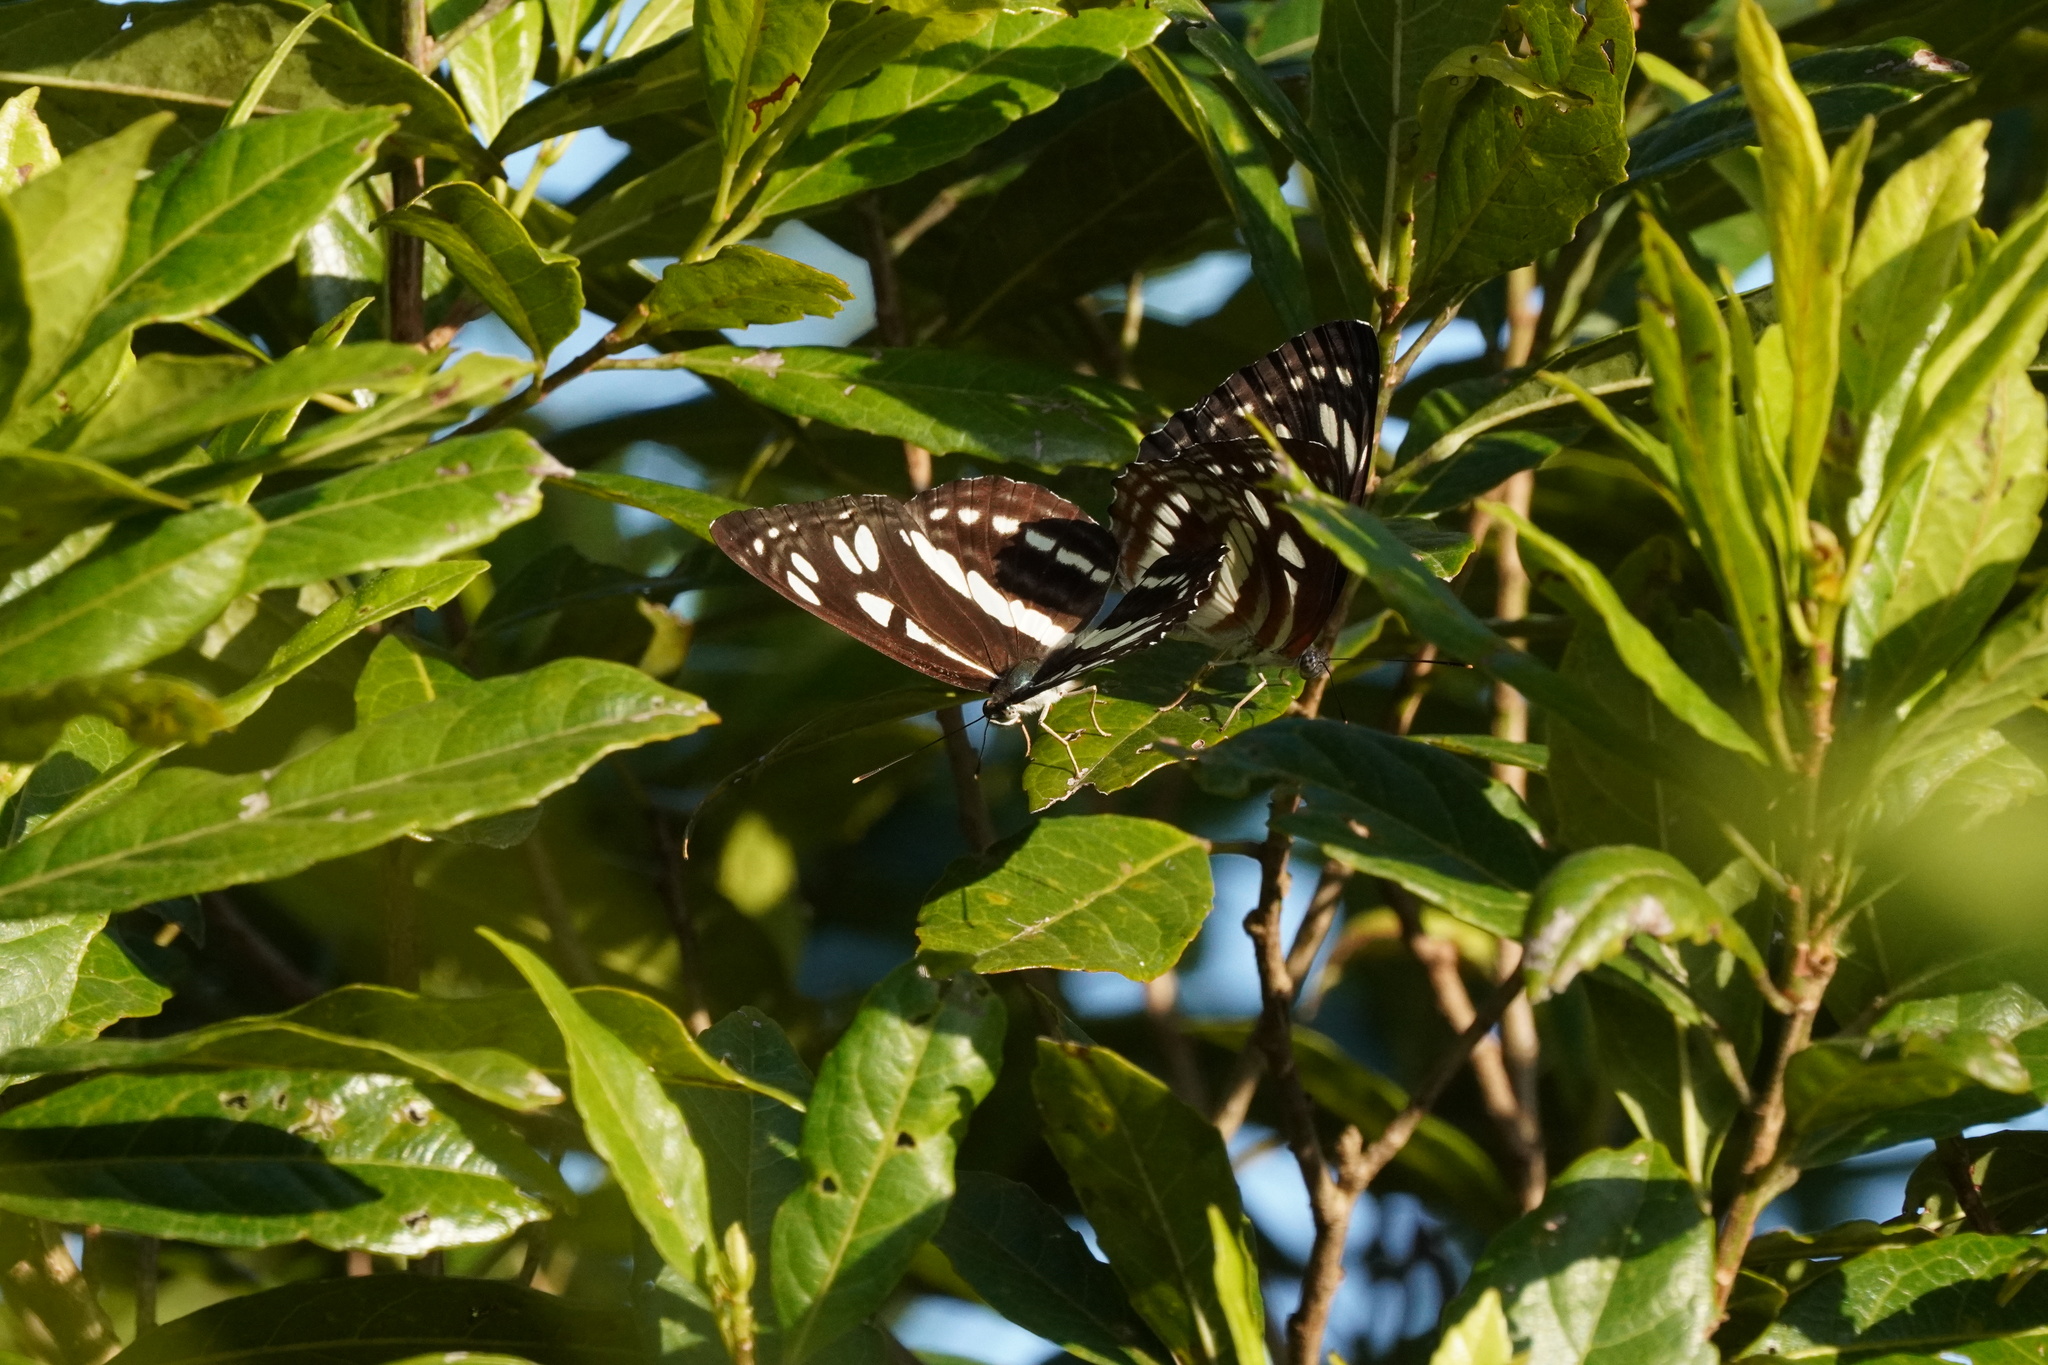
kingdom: Animalia
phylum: Arthropoda
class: Insecta
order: Lepidoptera
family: Nymphalidae
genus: Phaedyma
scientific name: Phaedyma columella
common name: Short banded sailer
